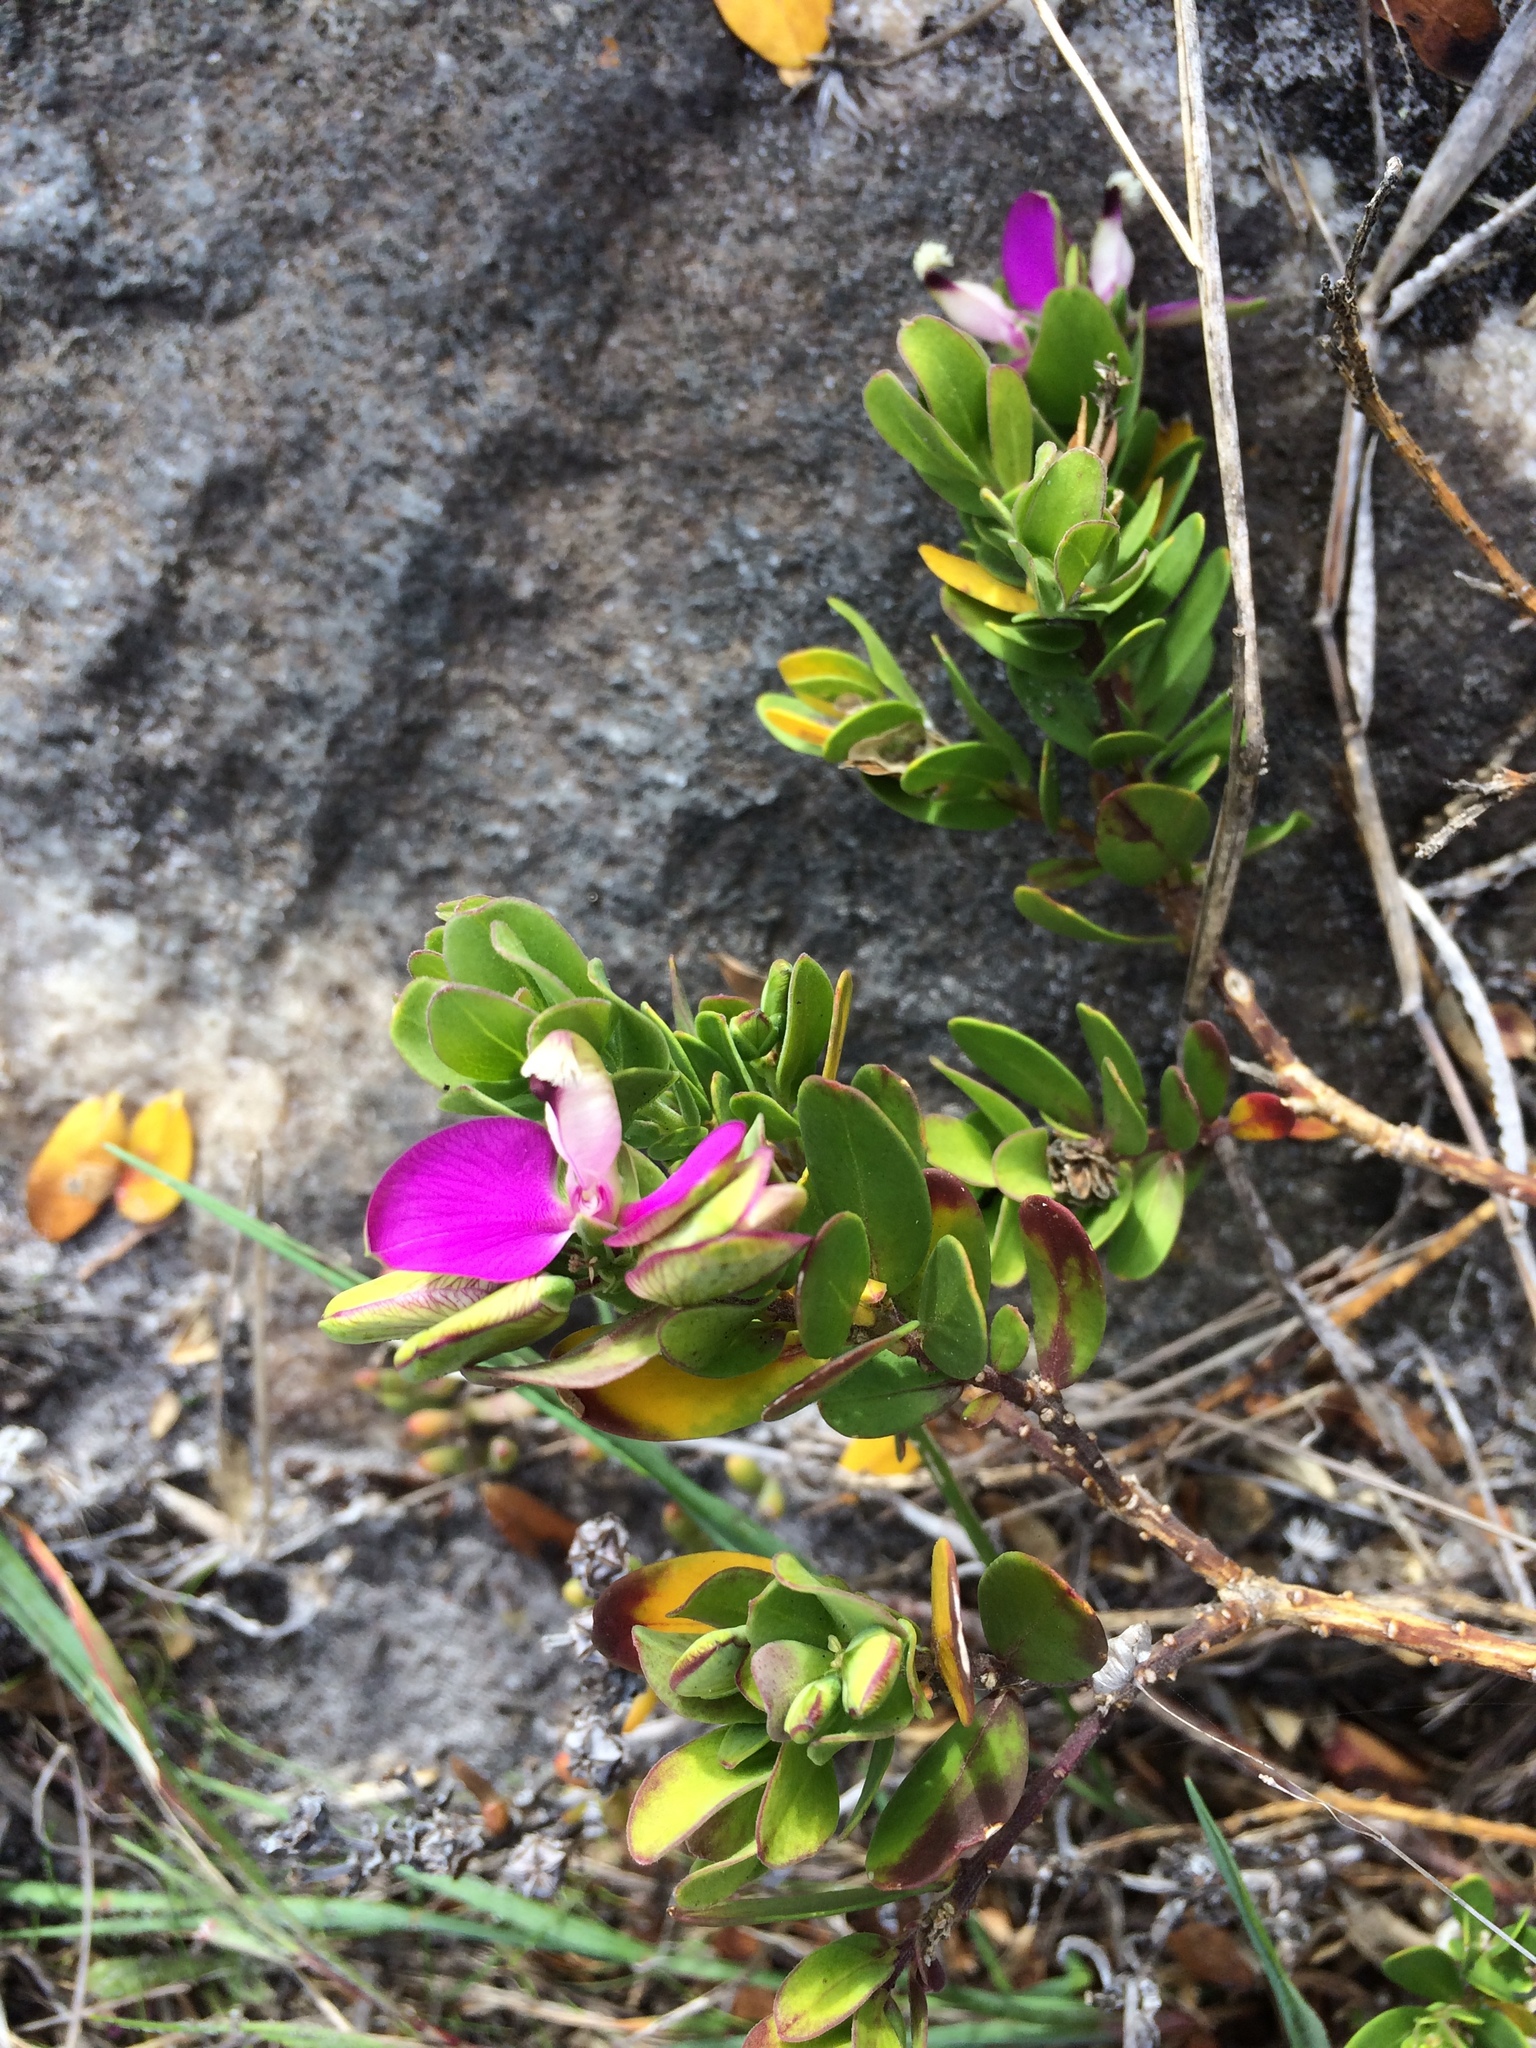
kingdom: Plantae
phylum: Tracheophyta
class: Magnoliopsida
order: Fabales
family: Polygalaceae
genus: Polygala
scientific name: Polygala myrtifolia
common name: Myrtle-leaf milkwort
